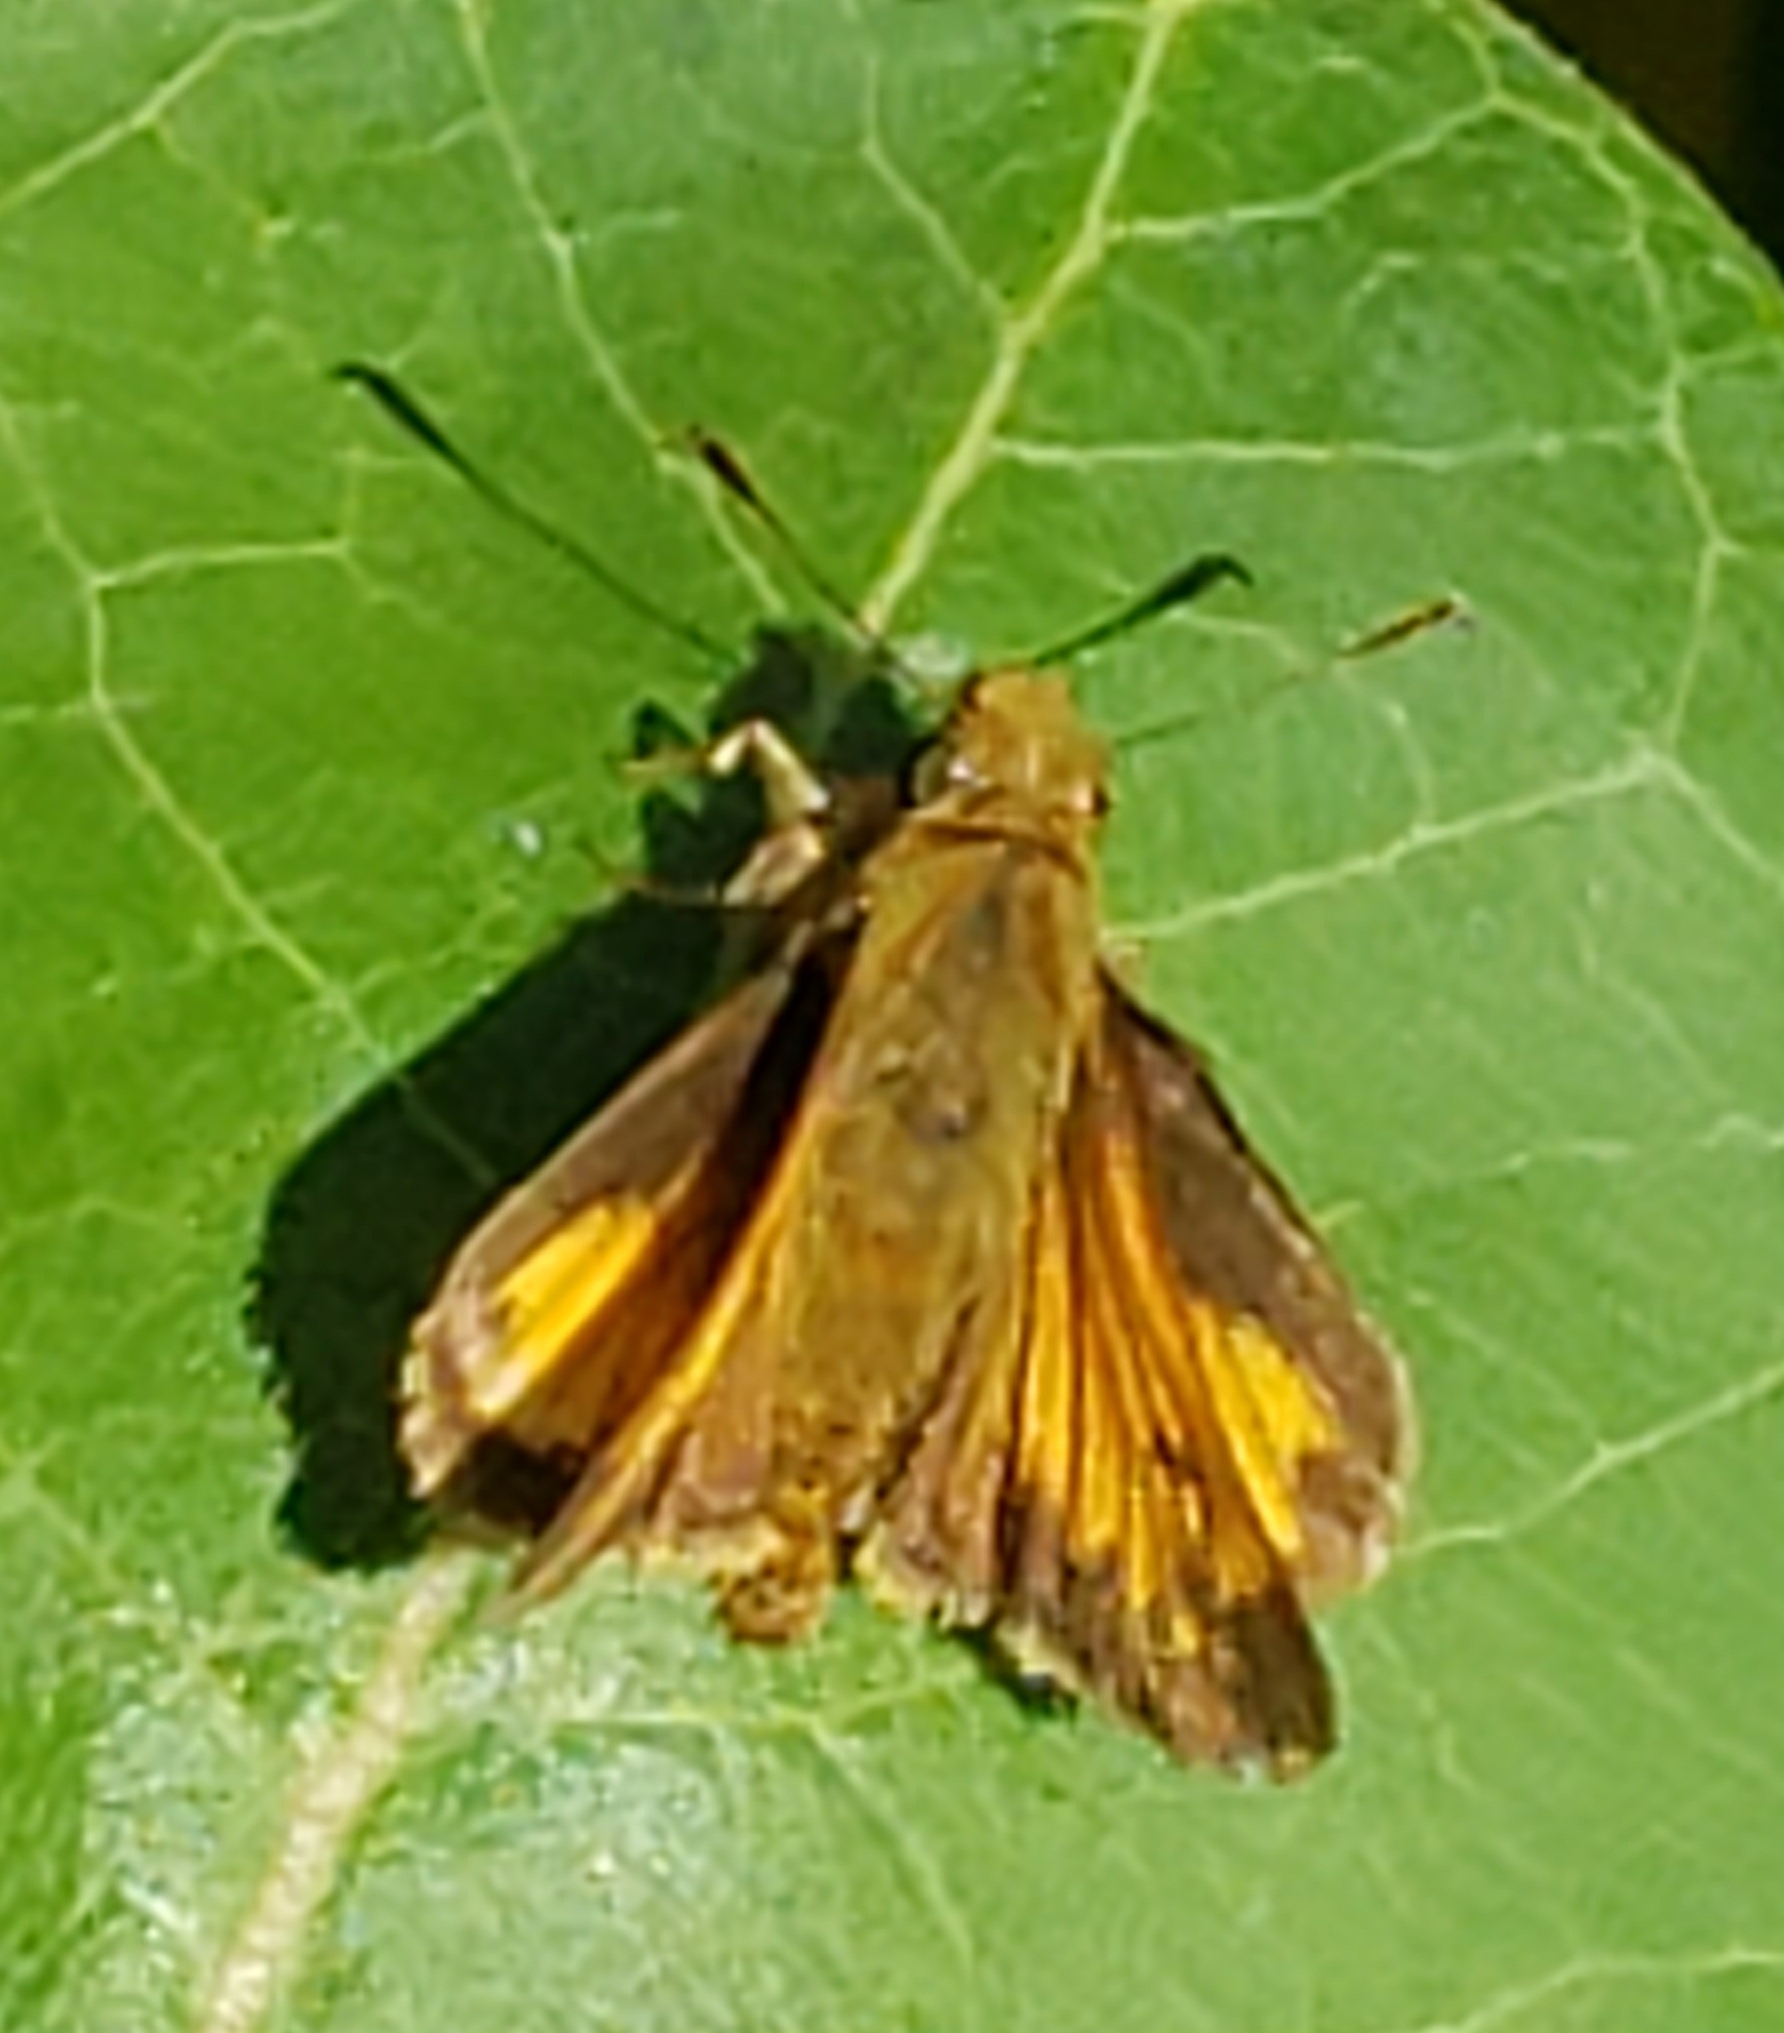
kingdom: Animalia
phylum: Arthropoda
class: Insecta
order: Lepidoptera
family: Hesperiidae
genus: Lon
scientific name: Lon hobomok
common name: Hobomok skipper
